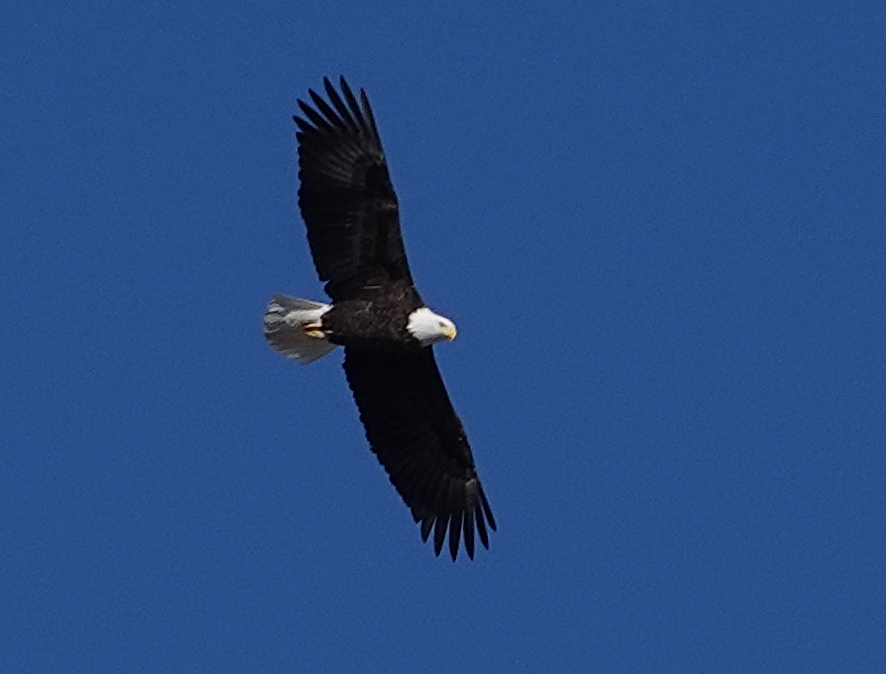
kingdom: Animalia
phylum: Chordata
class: Aves
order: Accipitriformes
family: Accipitridae
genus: Haliaeetus
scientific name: Haliaeetus leucocephalus
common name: Bald eagle
